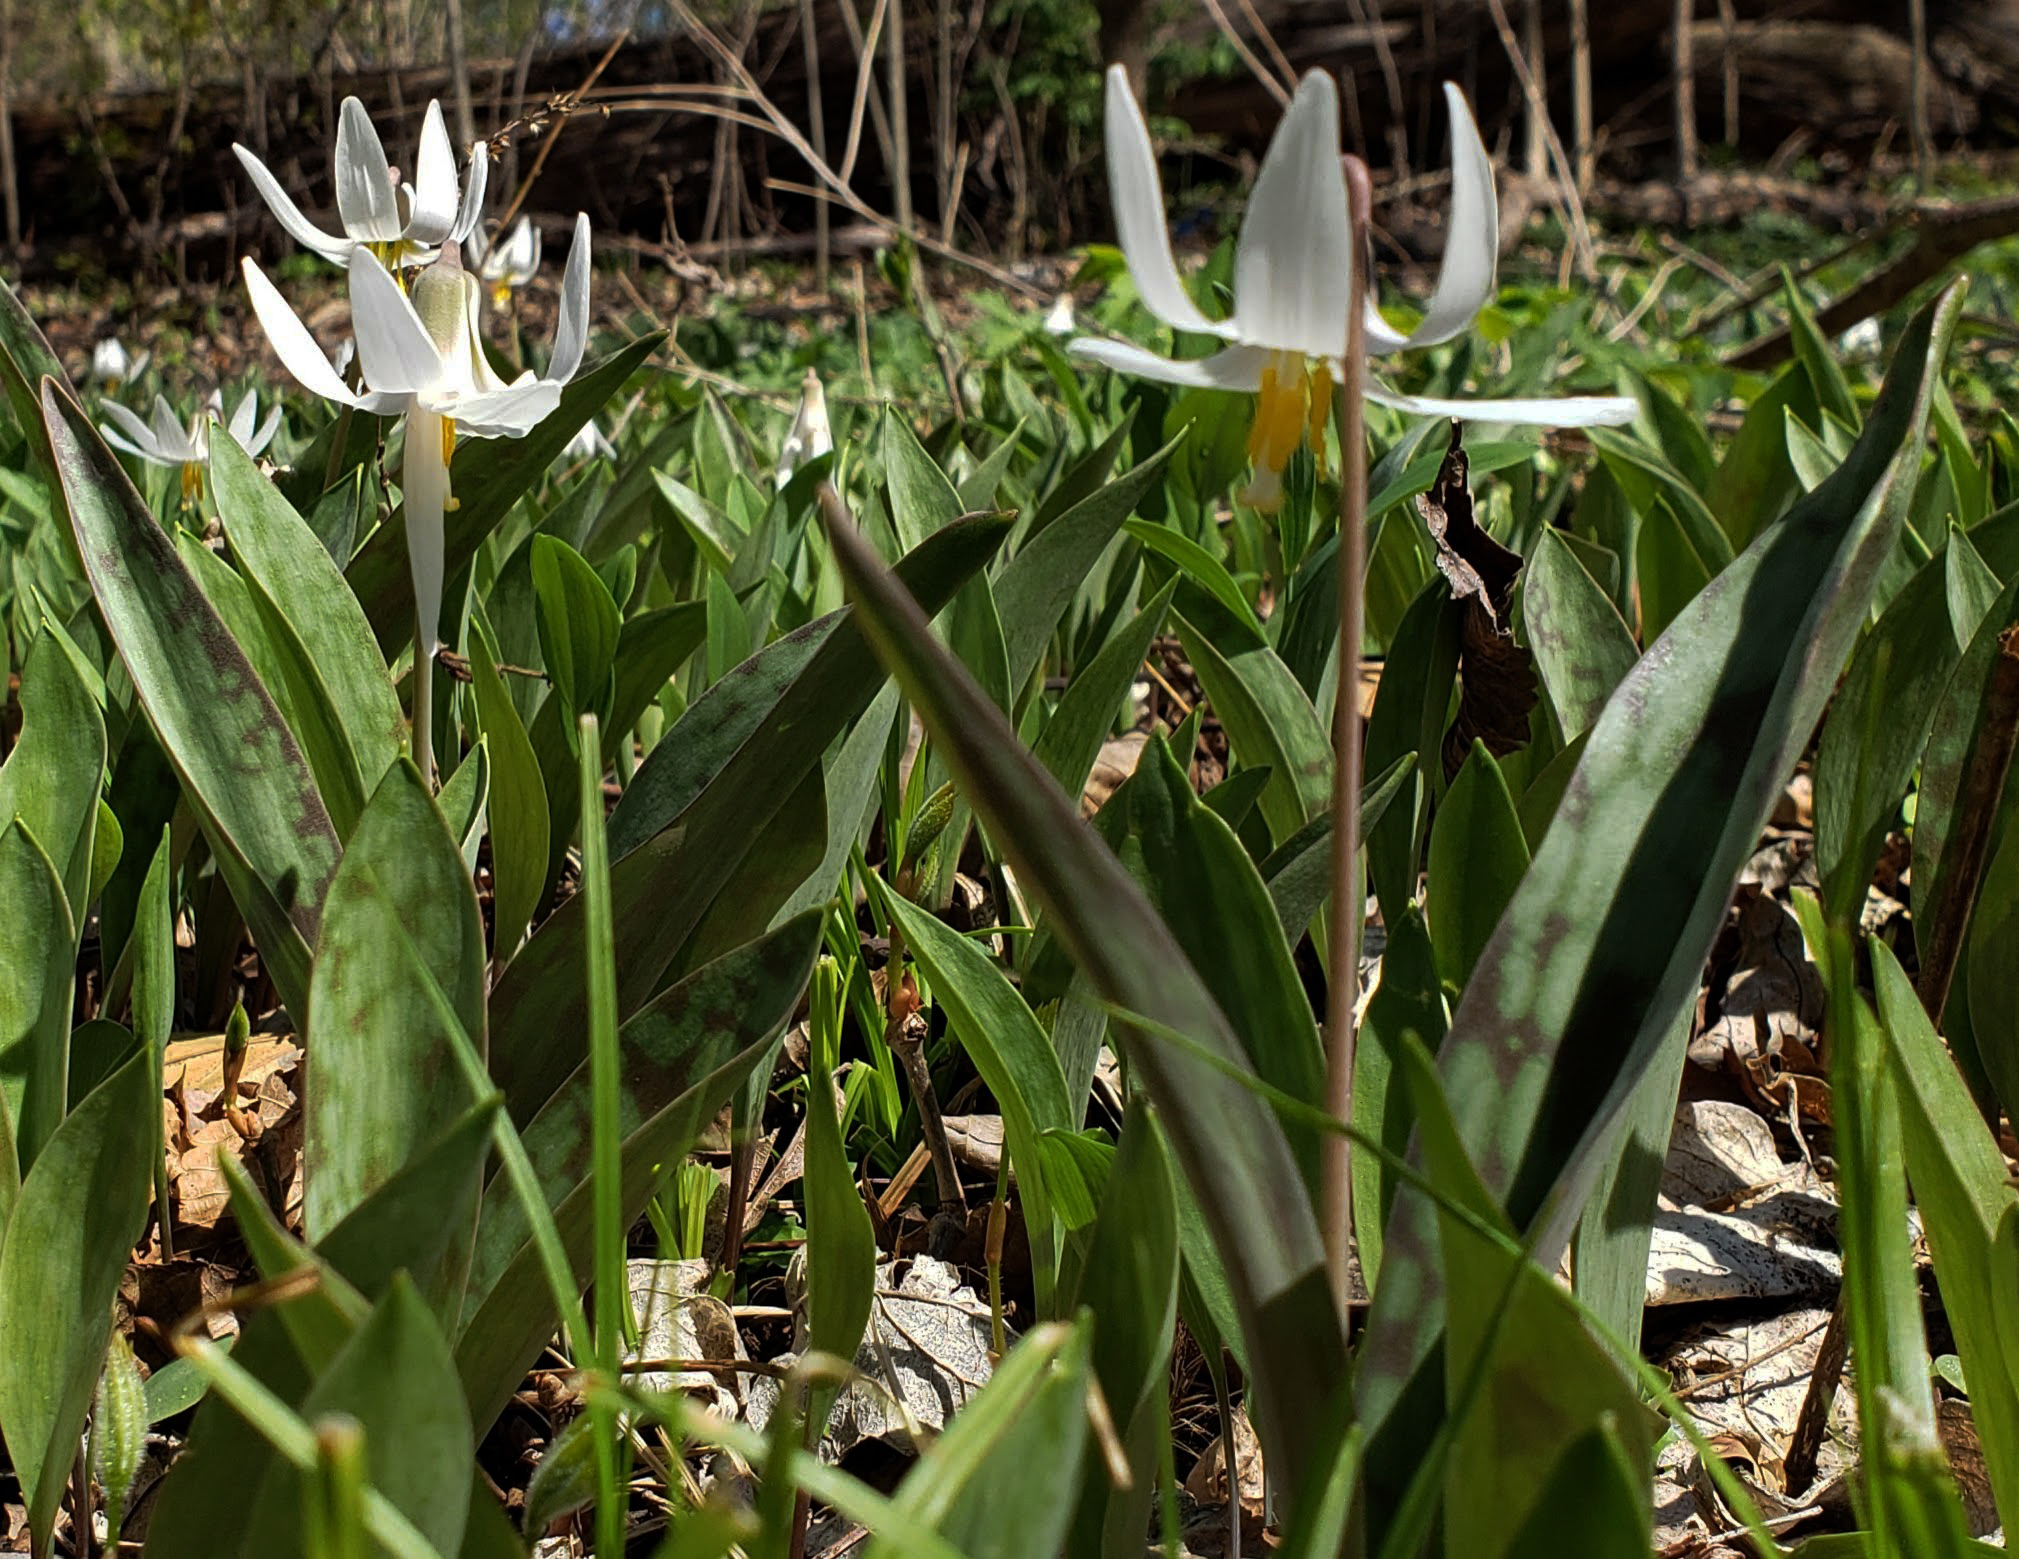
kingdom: Plantae
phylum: Tracheophyta
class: Liliopsida
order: Liliales
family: Liliaceae
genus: Erythronium
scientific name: Erythronium albidum
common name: White trout-lily
